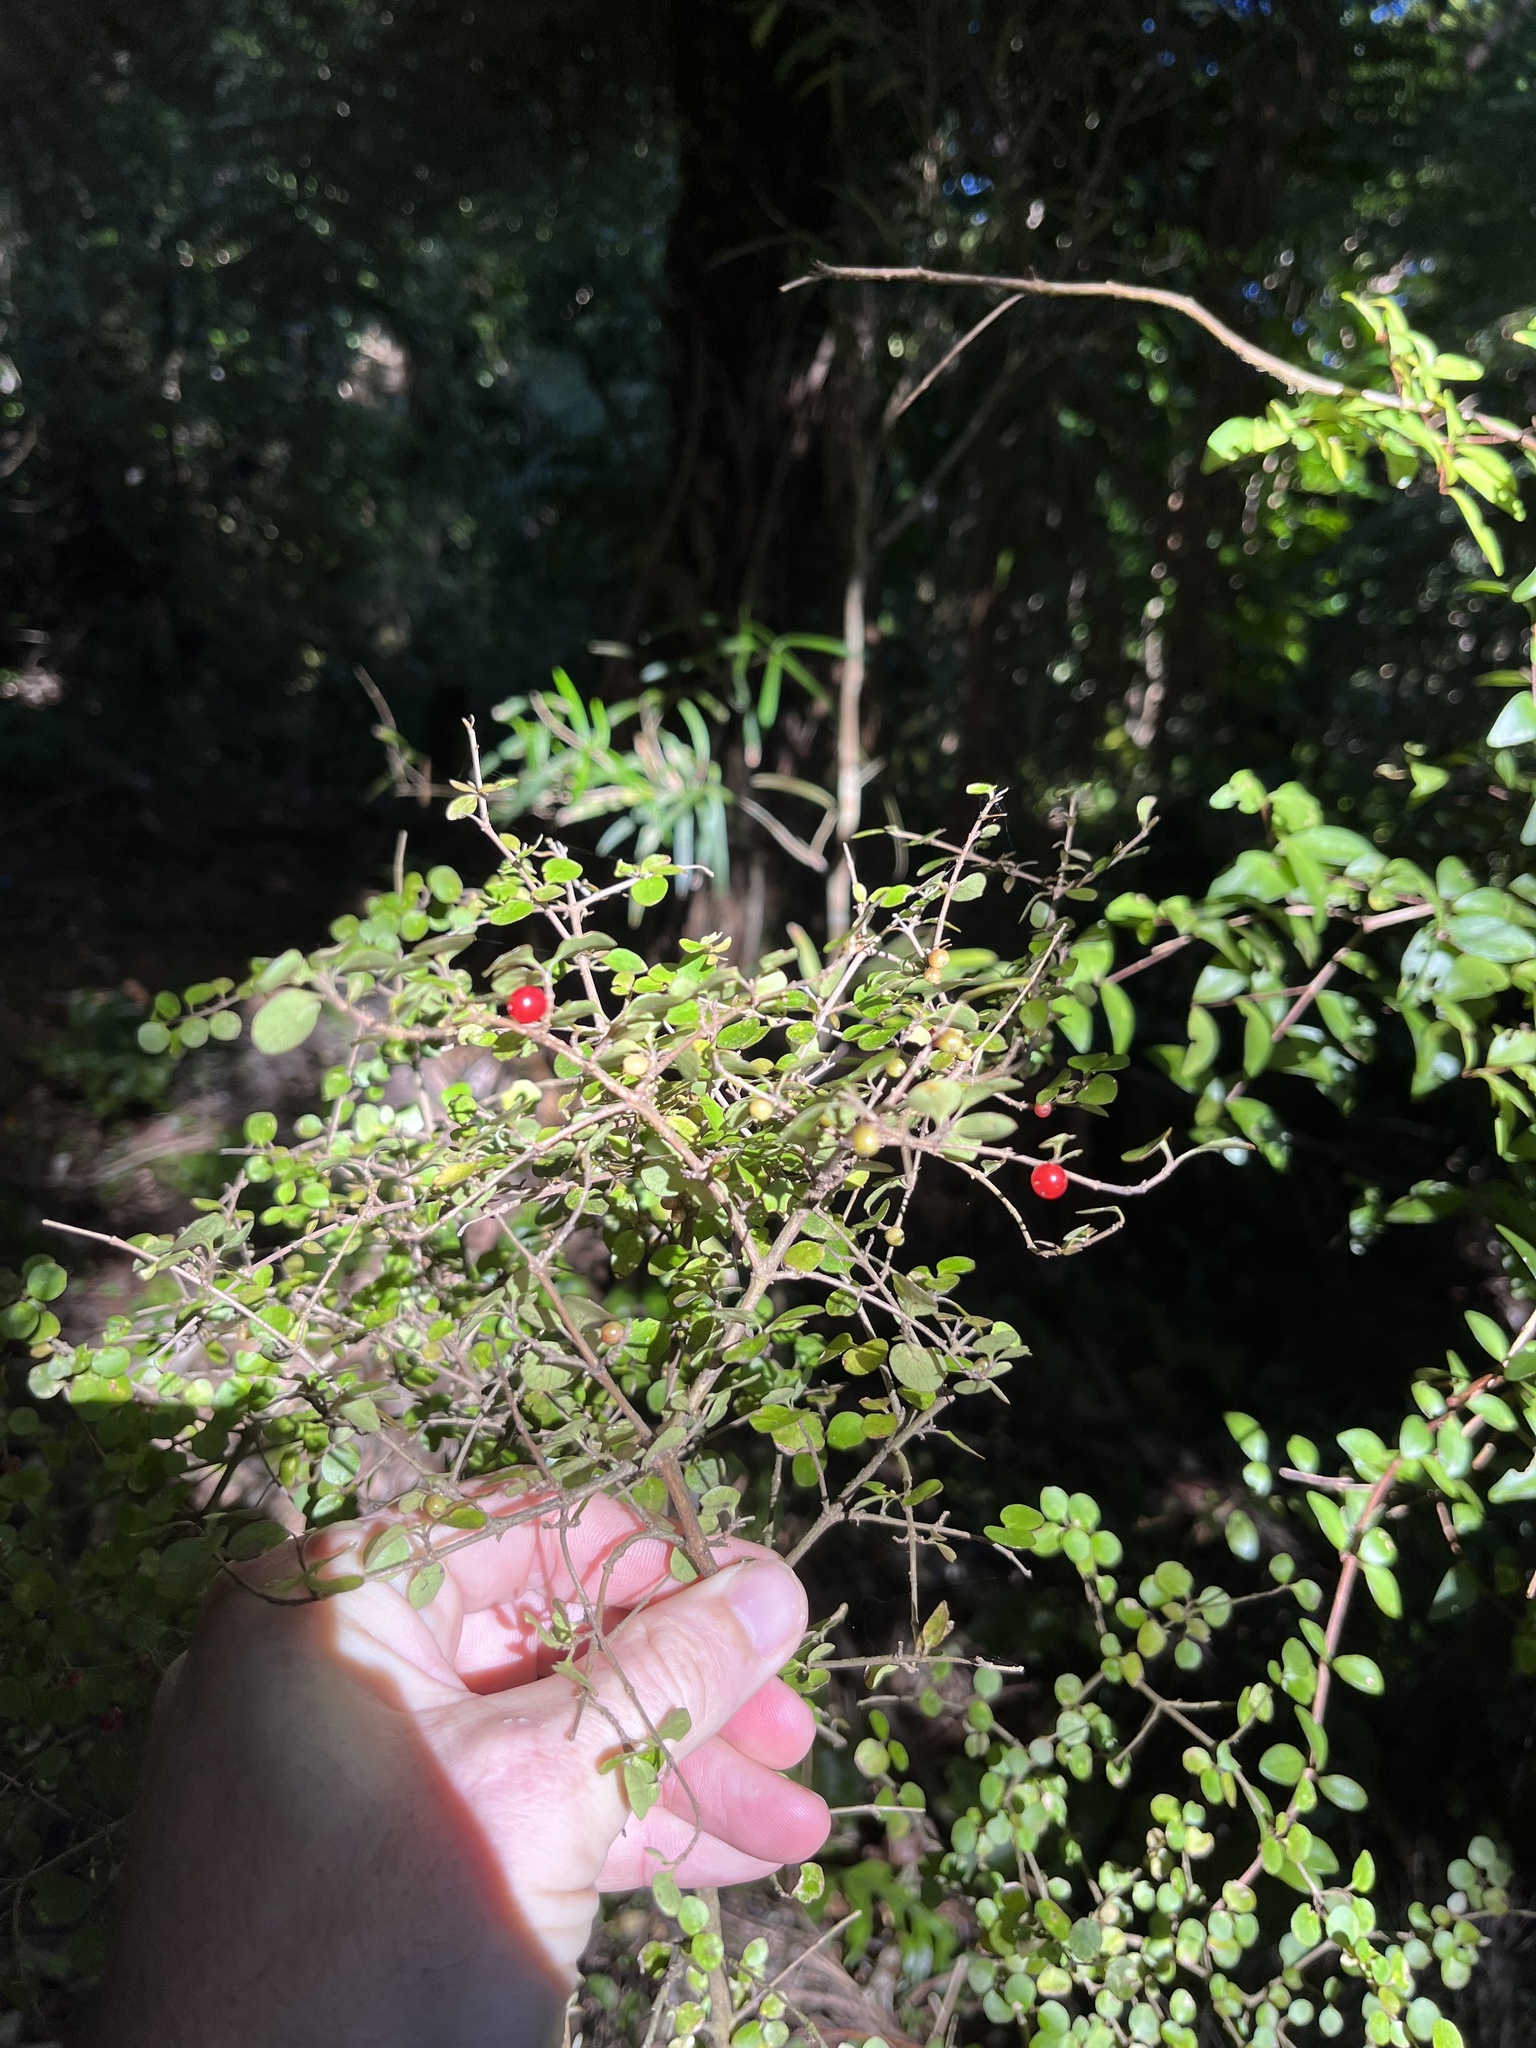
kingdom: Plantae
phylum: Tracheophyta
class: Magnoliopsida
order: Gentianales
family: Rubiaceae
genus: Coprosma
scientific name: Coprosma rhamnoides
